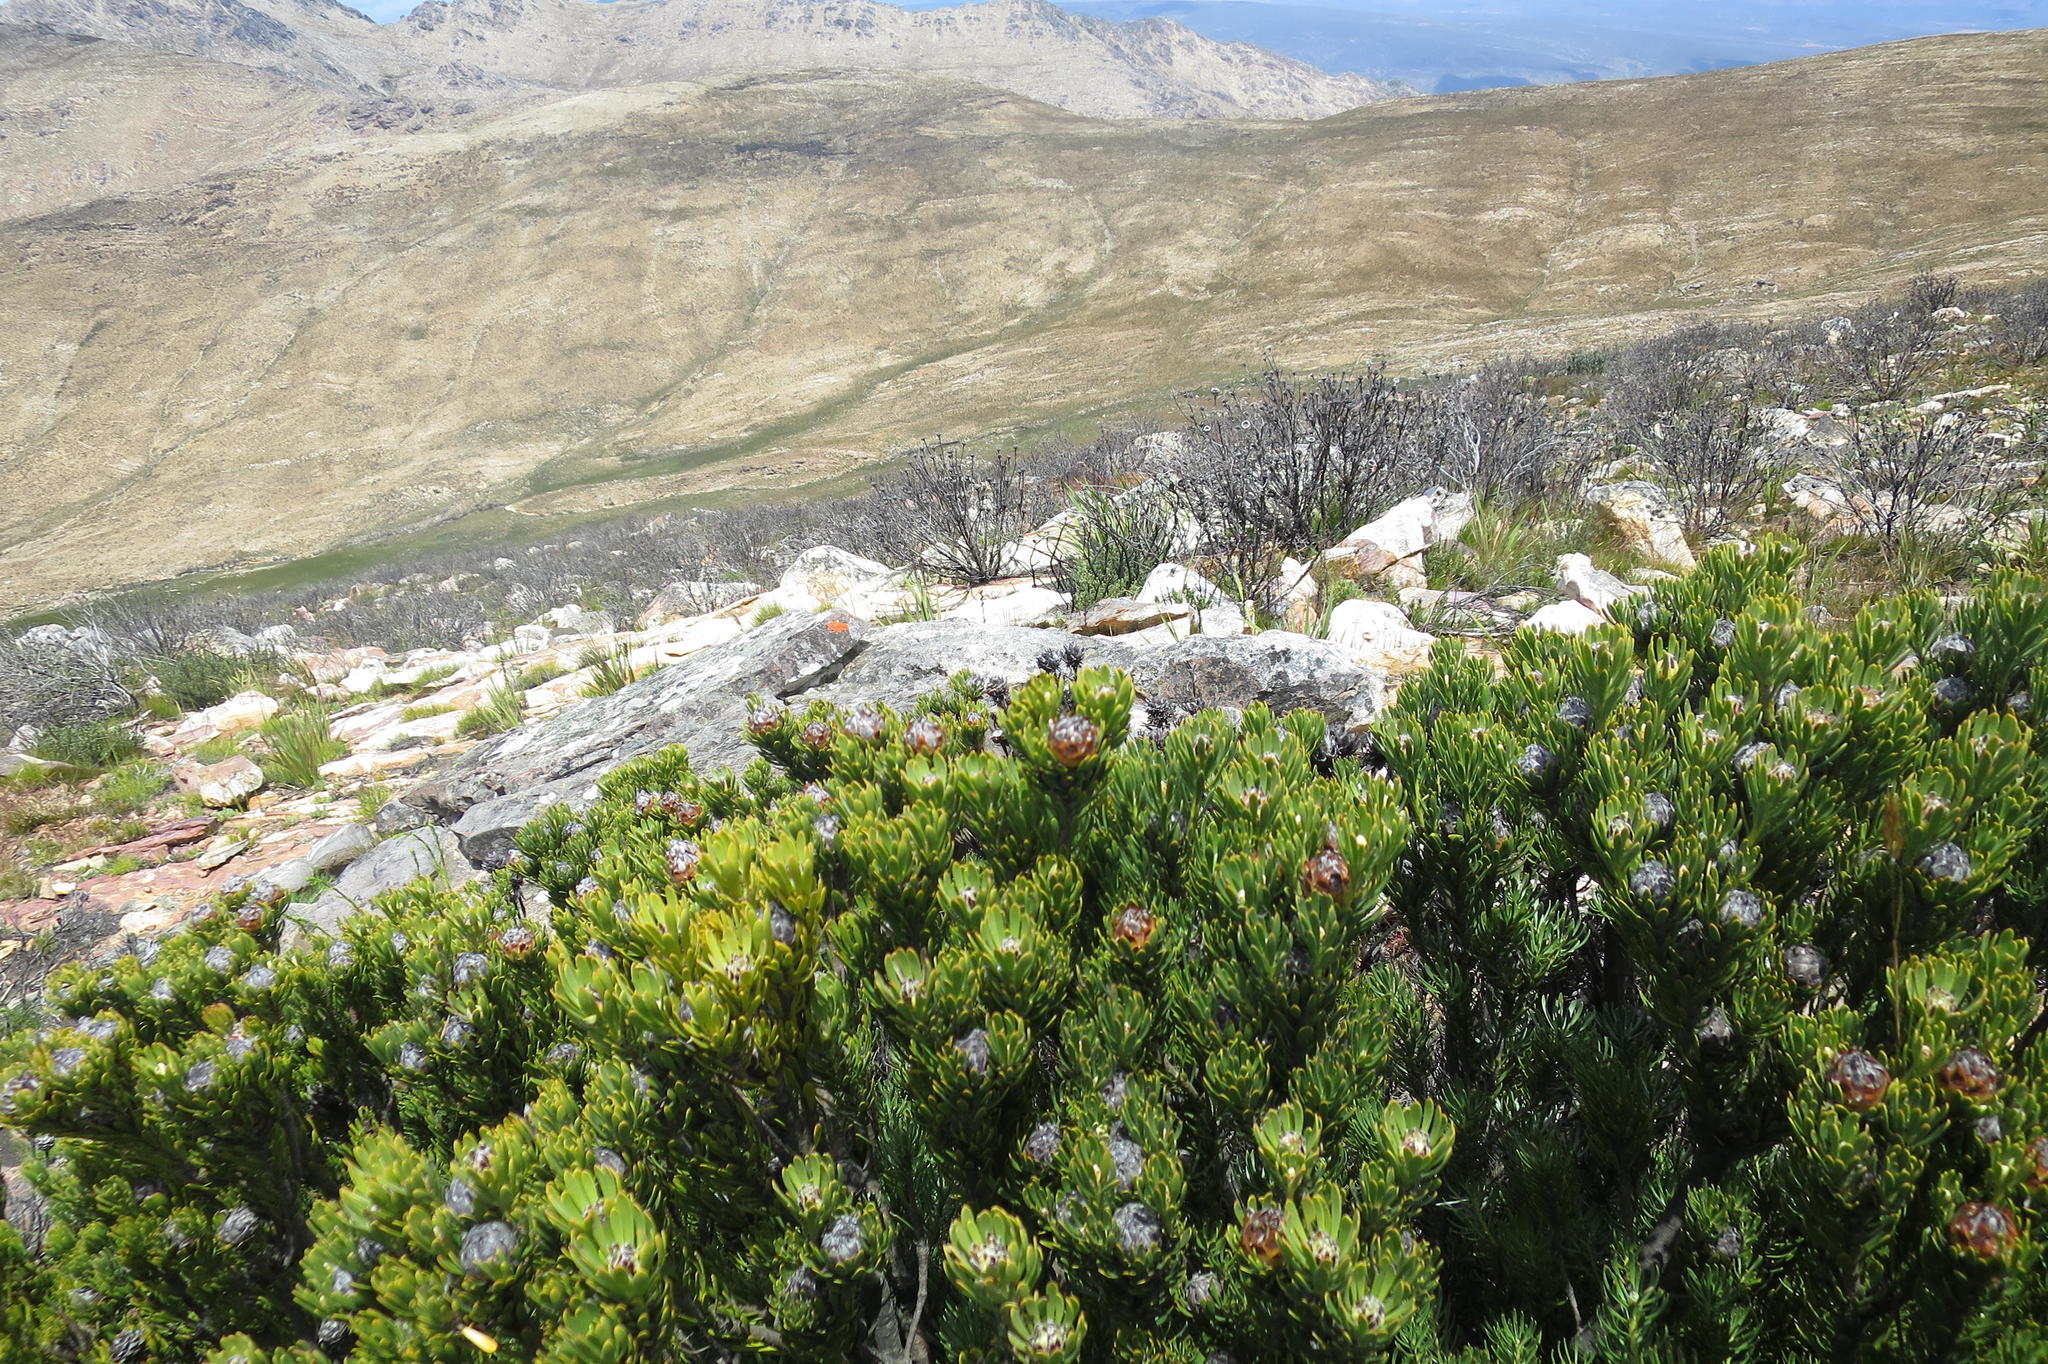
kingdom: Plantae
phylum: Tracheophyta
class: Magnoliopsida
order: Proteales
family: Proteaceae
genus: Leucadendron
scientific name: Leucadendron dregei
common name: Summit conebush
